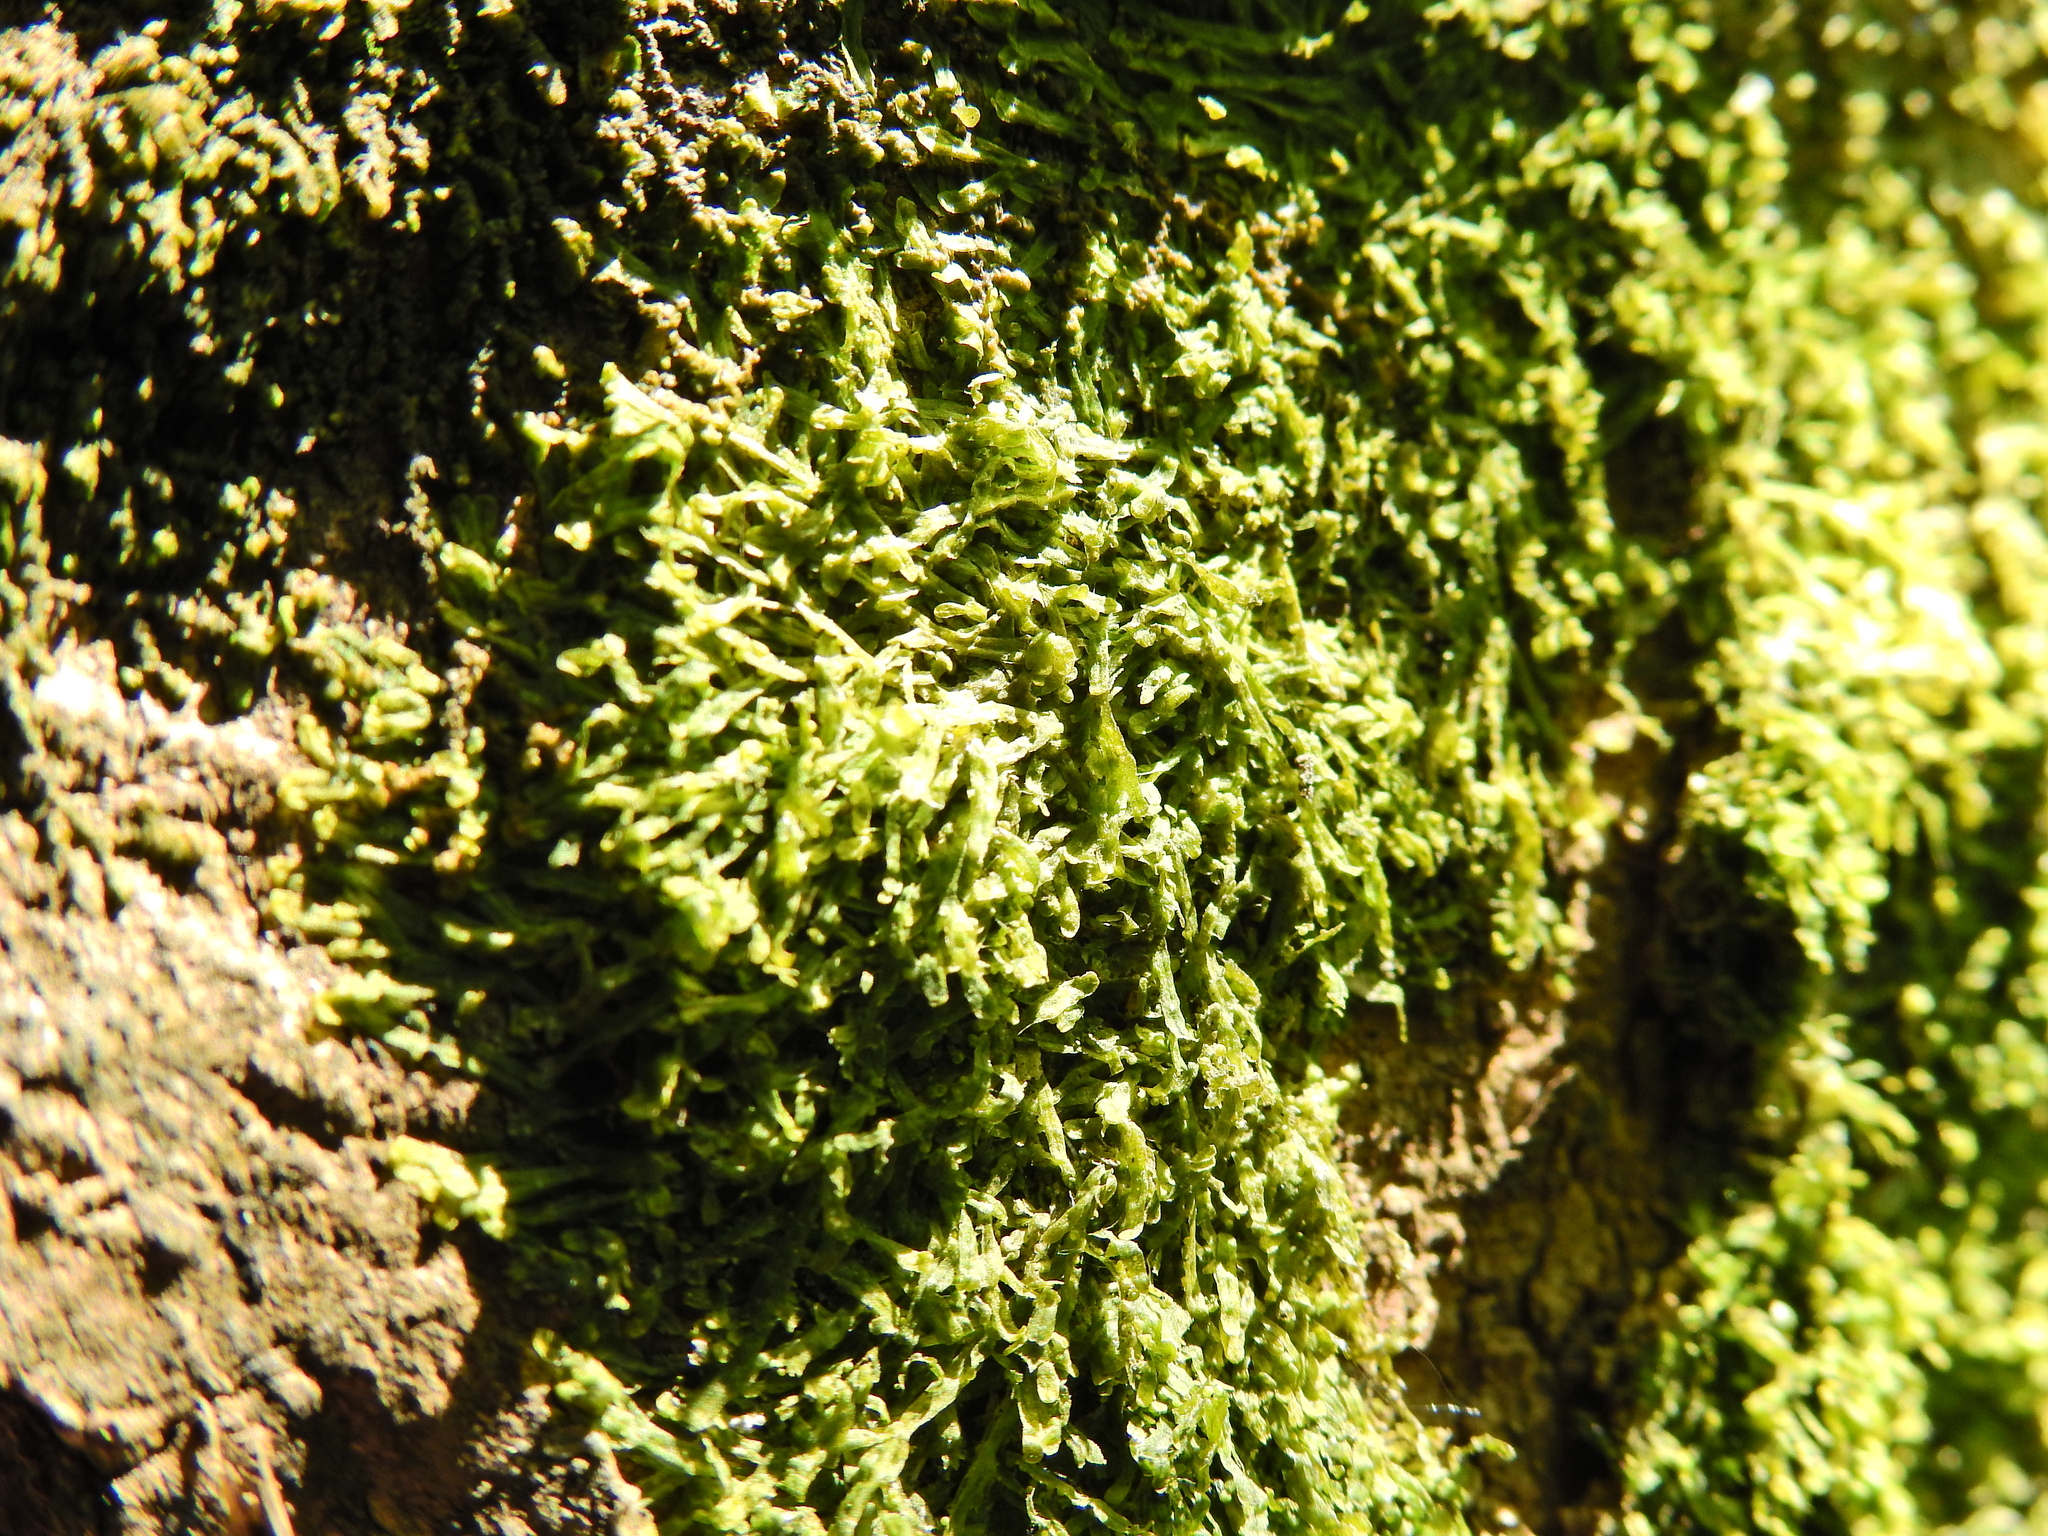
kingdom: Plantae
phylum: Marchantiophyta
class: Jungermanniopsida
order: Metzgeriales
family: Metzgeriaceae
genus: Metzgeria
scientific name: Metzgeria furcata
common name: Forked veilwort
